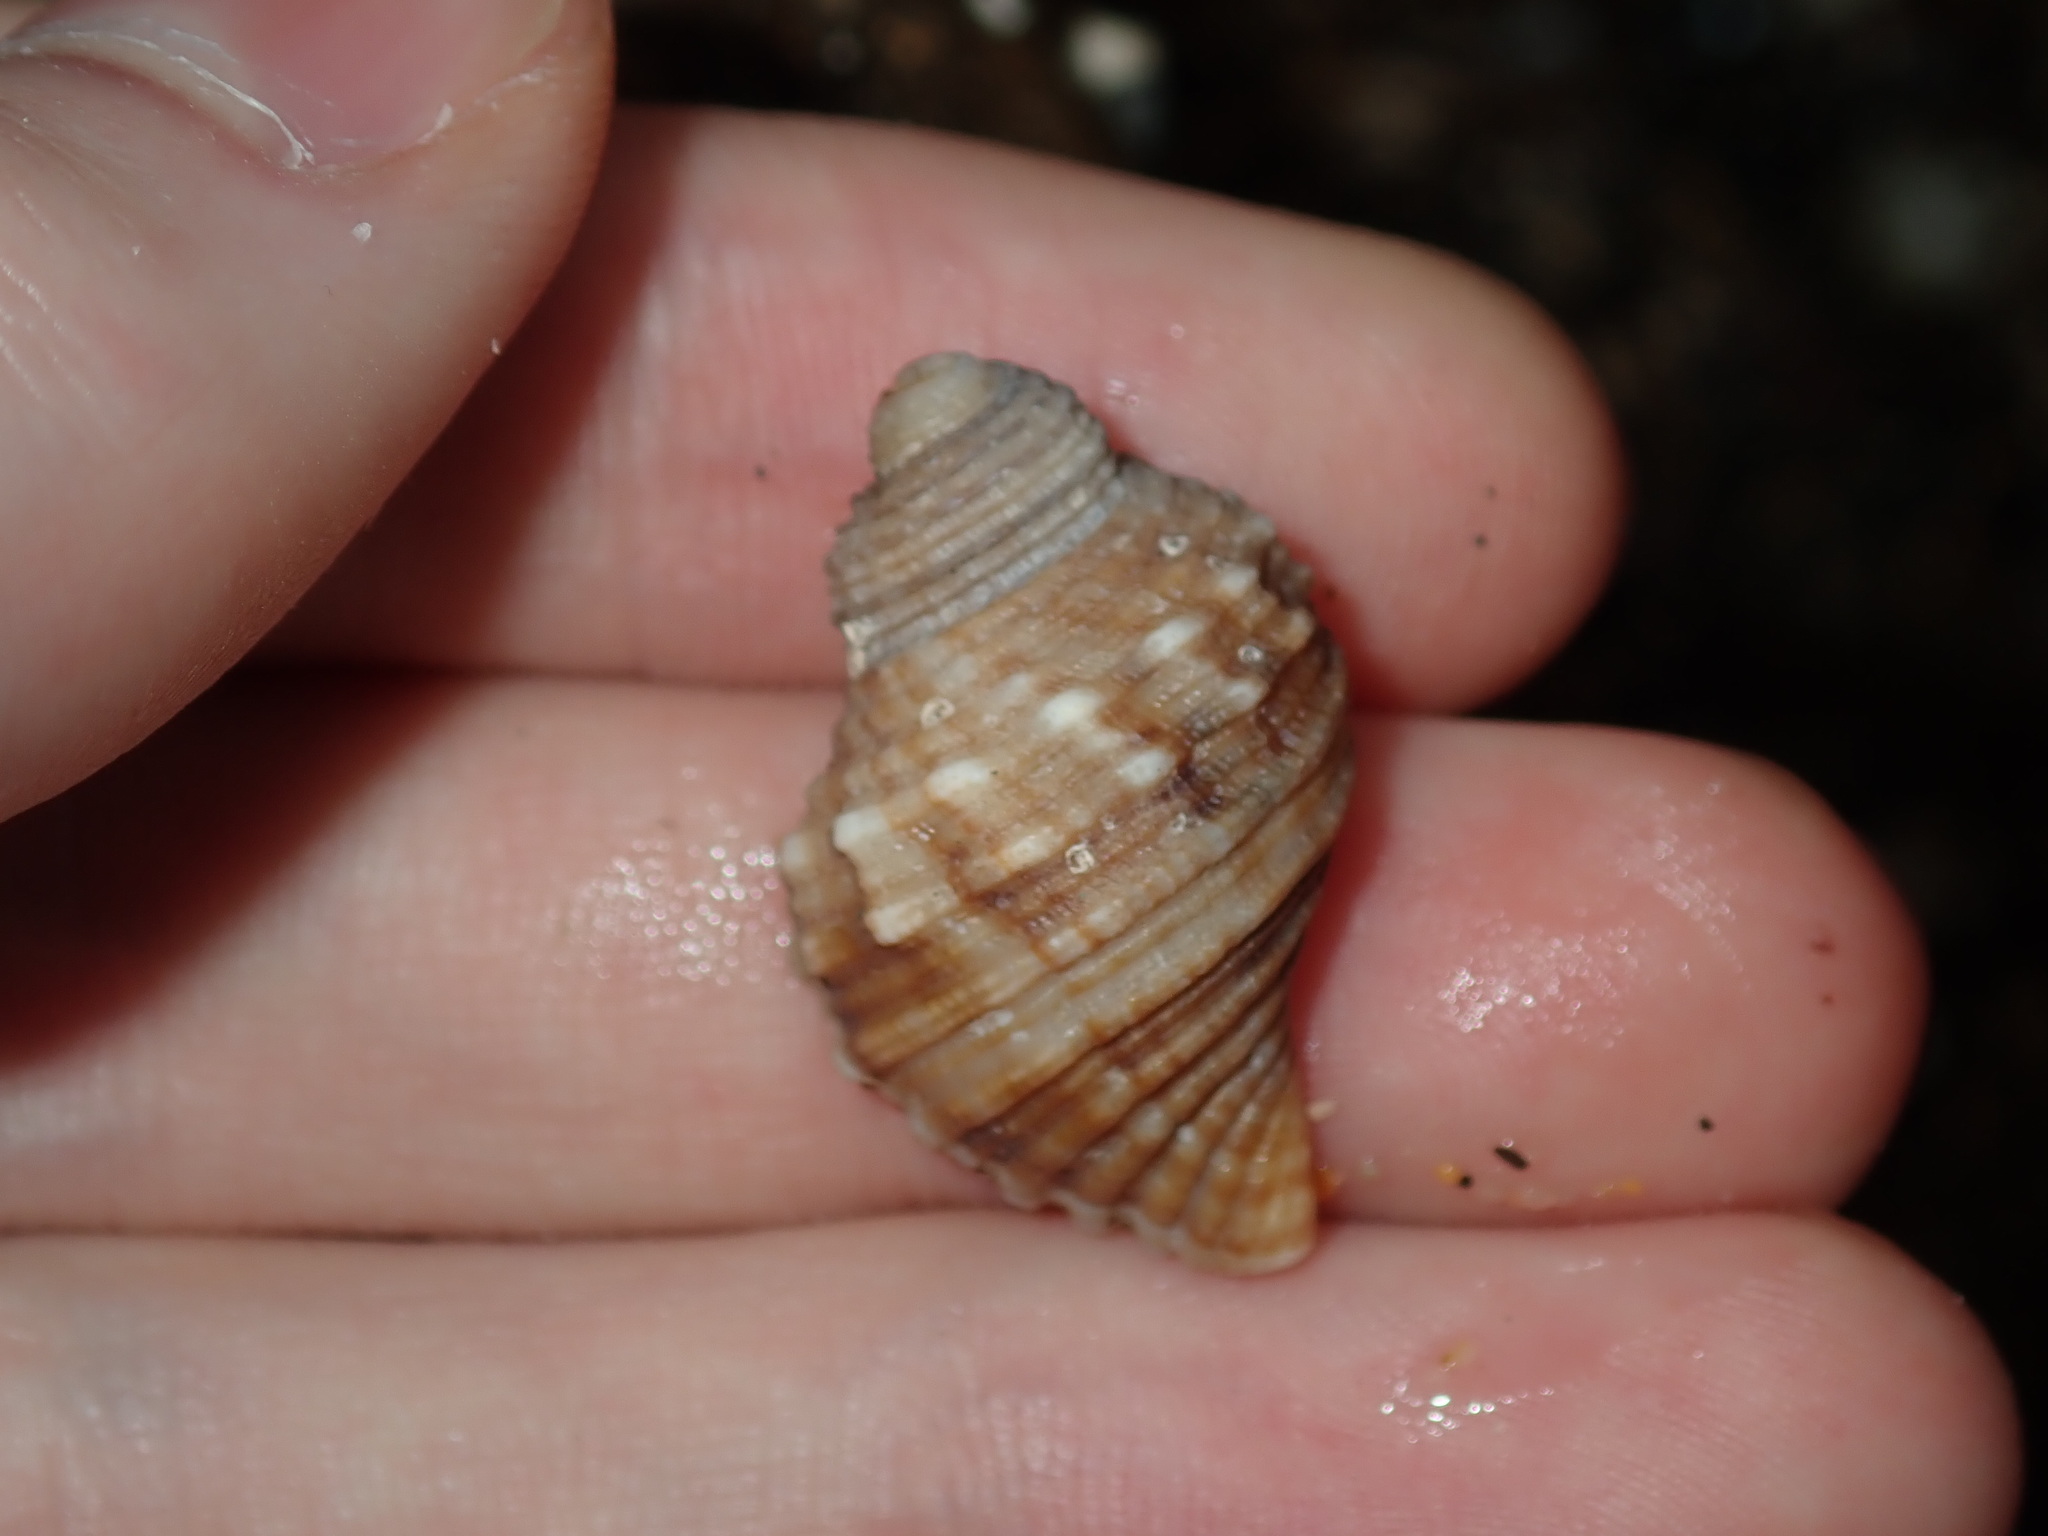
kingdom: Animalia
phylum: Mollusca
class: Gastropoda
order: Littorinimorpha
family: Cymatiidae
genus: Cabestana
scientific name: Cabestana spengleri
